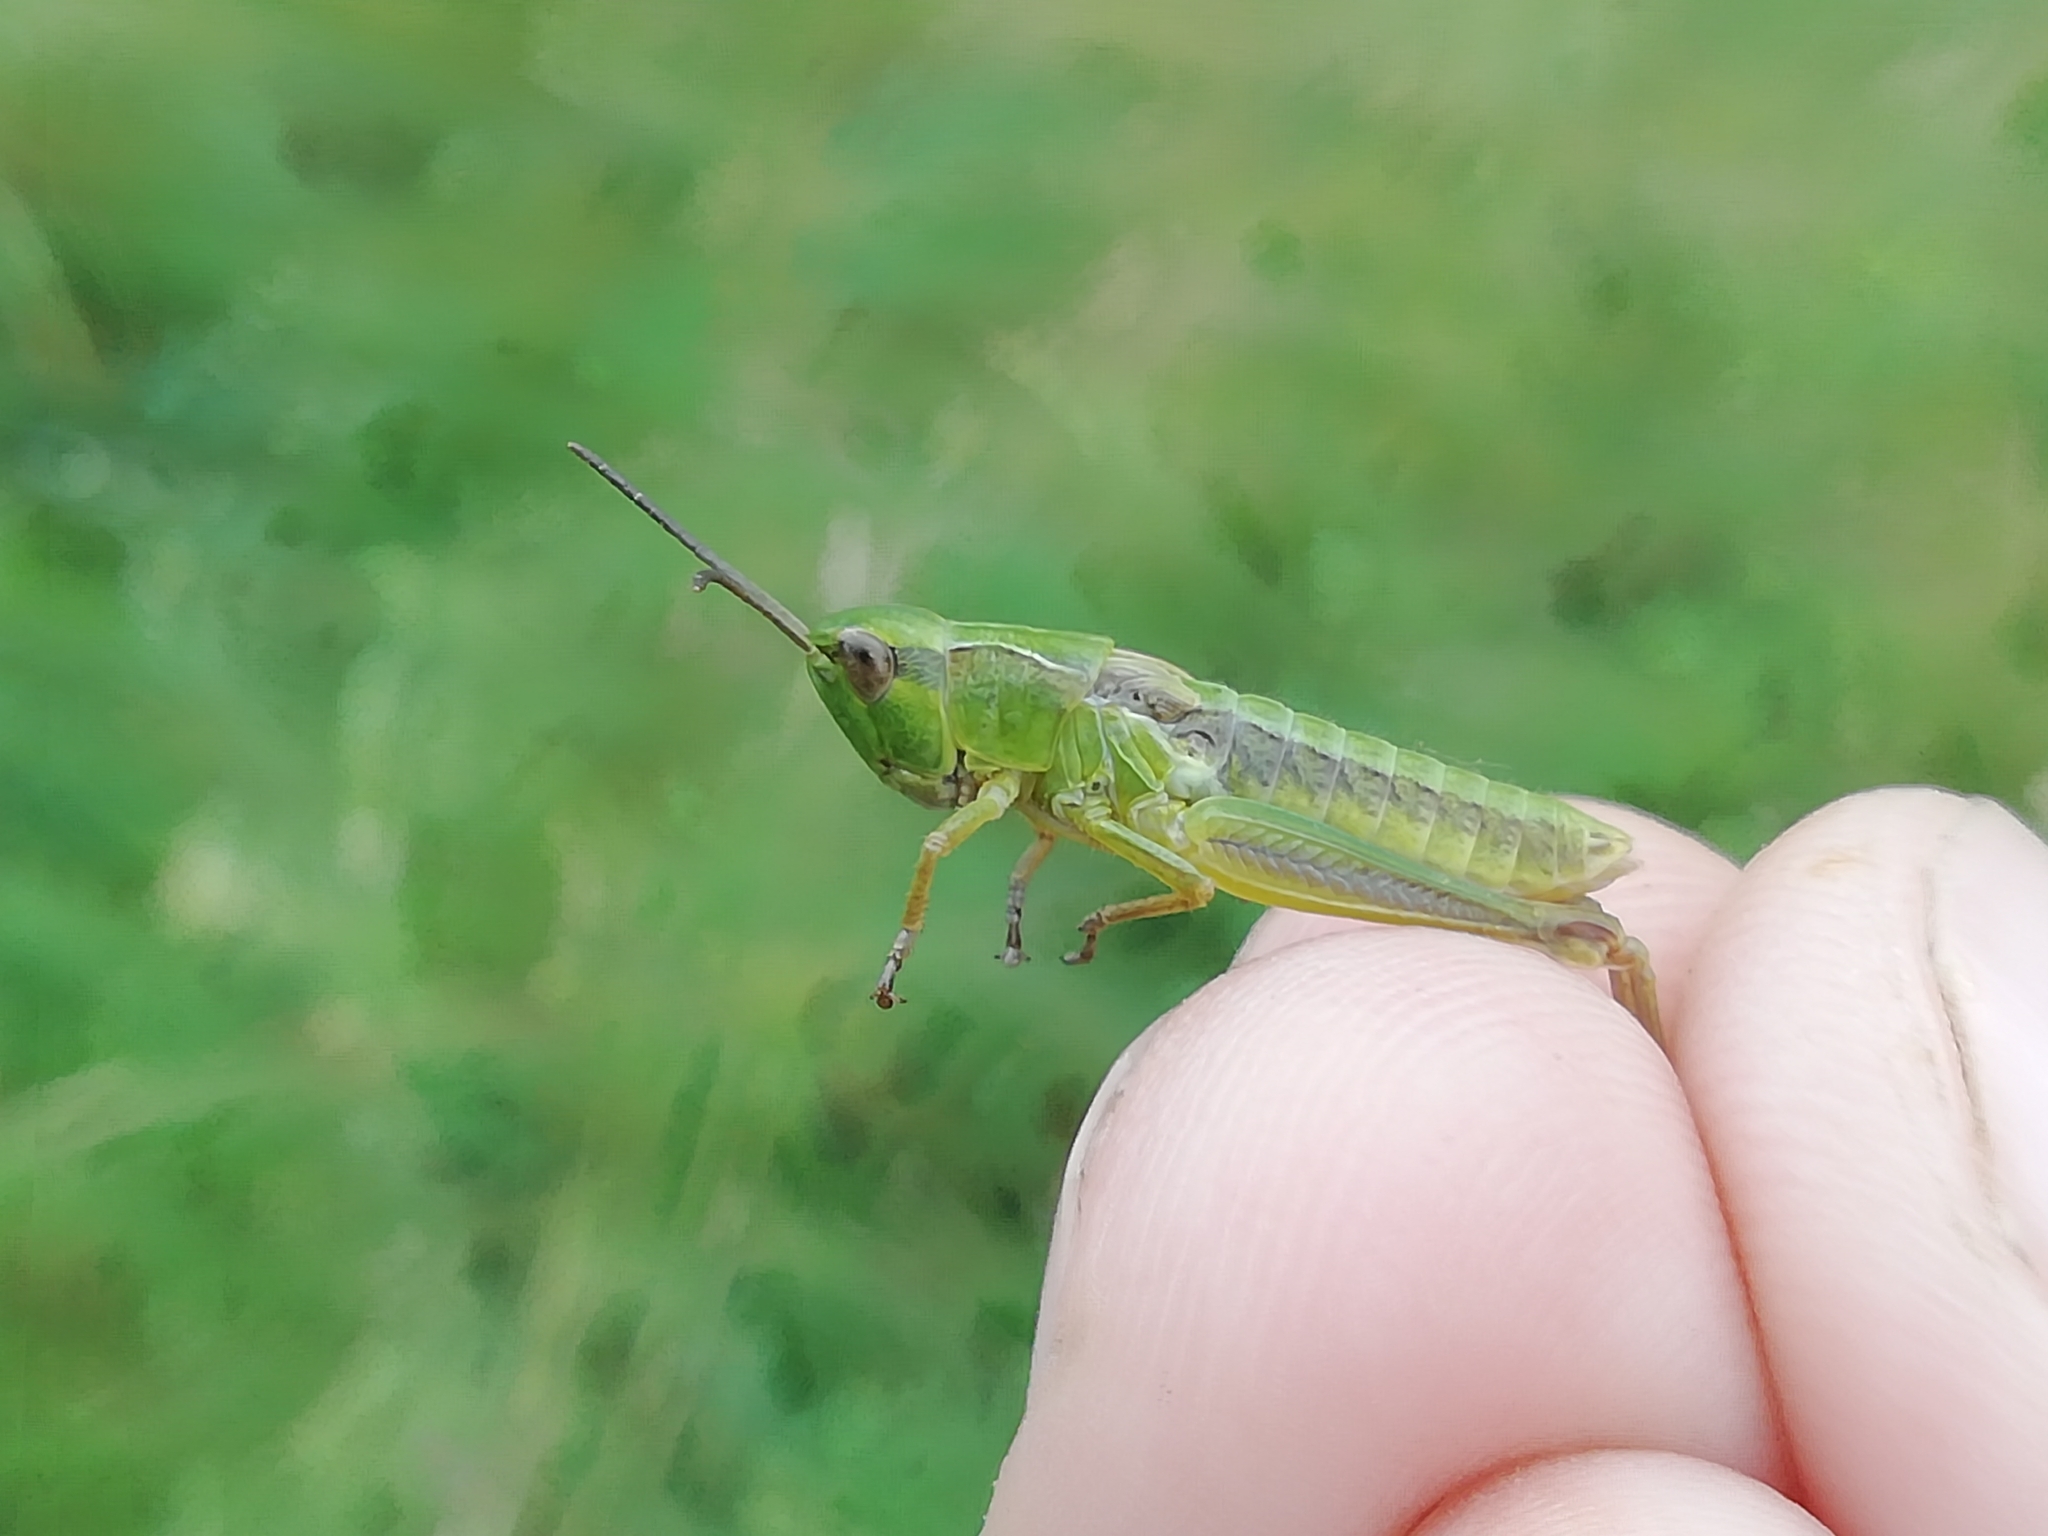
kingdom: Animalia
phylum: Arthropoda
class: Insecta
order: Orthoptera
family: Acrididae
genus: Chorthippus
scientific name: Chorthippus fallax
